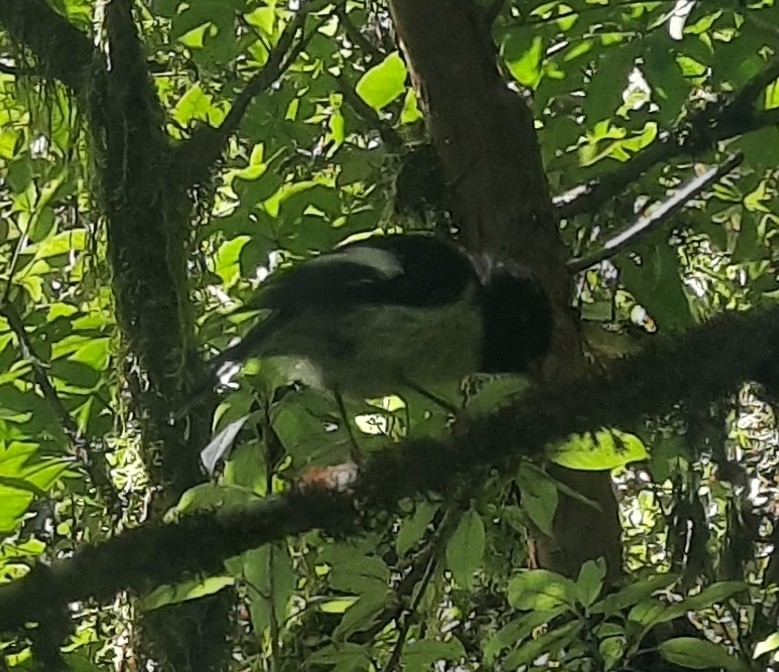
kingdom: Animalia
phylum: Chordata
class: Aves
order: Passeriformes
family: Petroicidae
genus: Petroica
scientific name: Petroica macrocephala
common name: Tomtit
